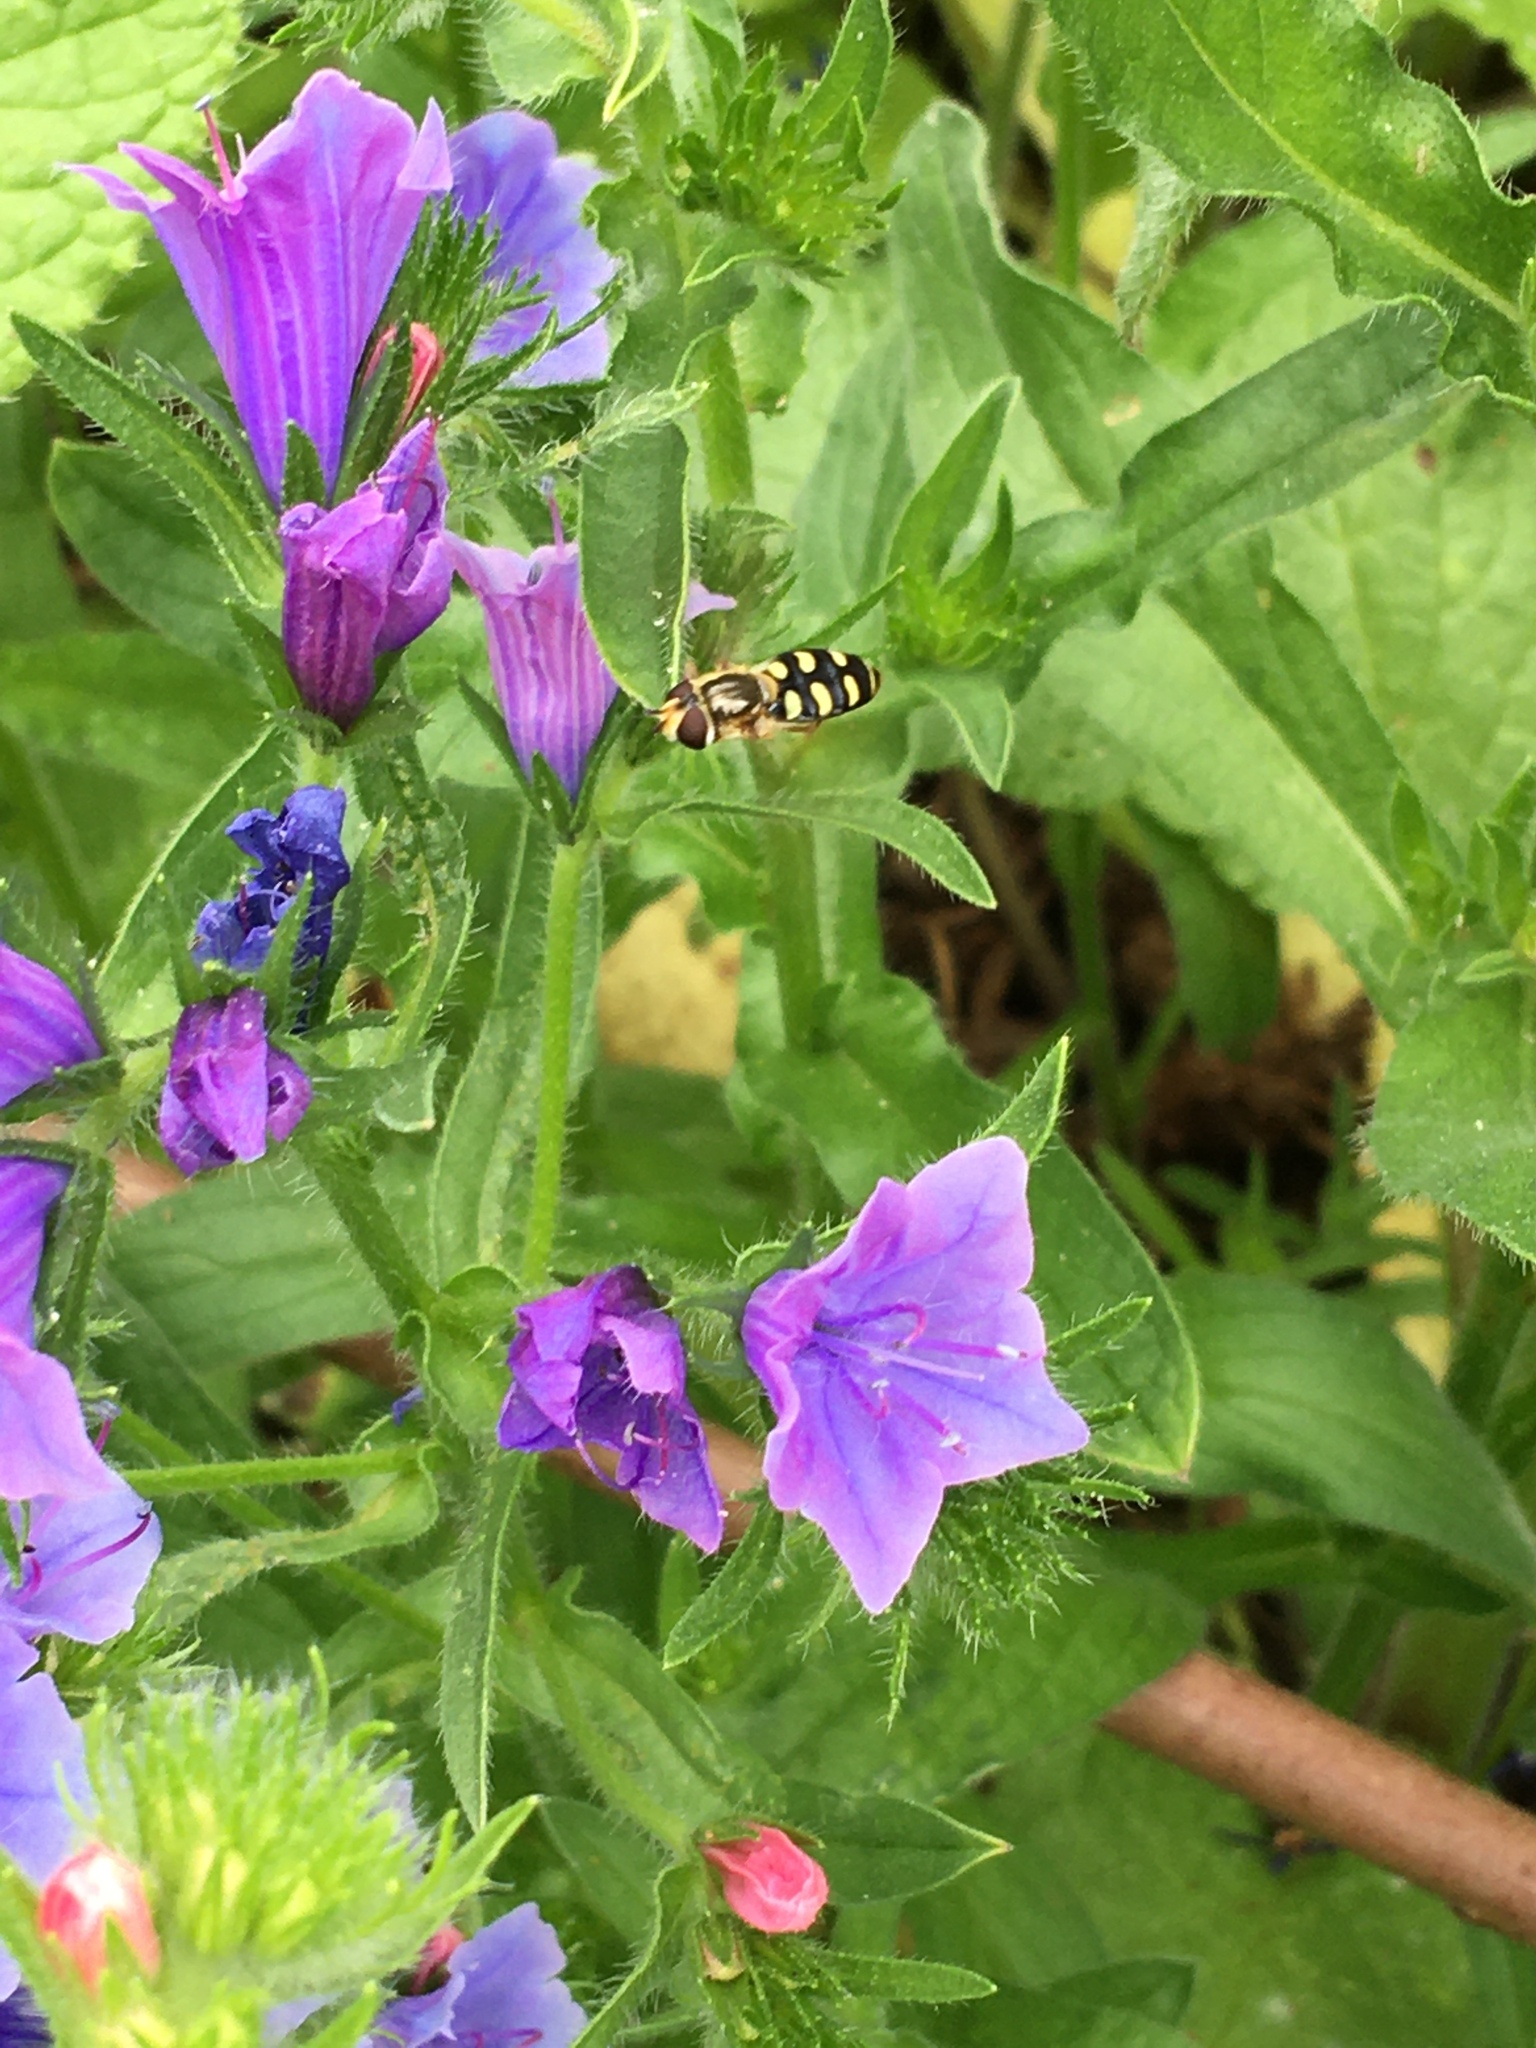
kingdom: Animalia
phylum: Arthropoda
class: Insecta
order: Diptera
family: Syrphidae
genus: Eupeodes
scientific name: Eupeodes
